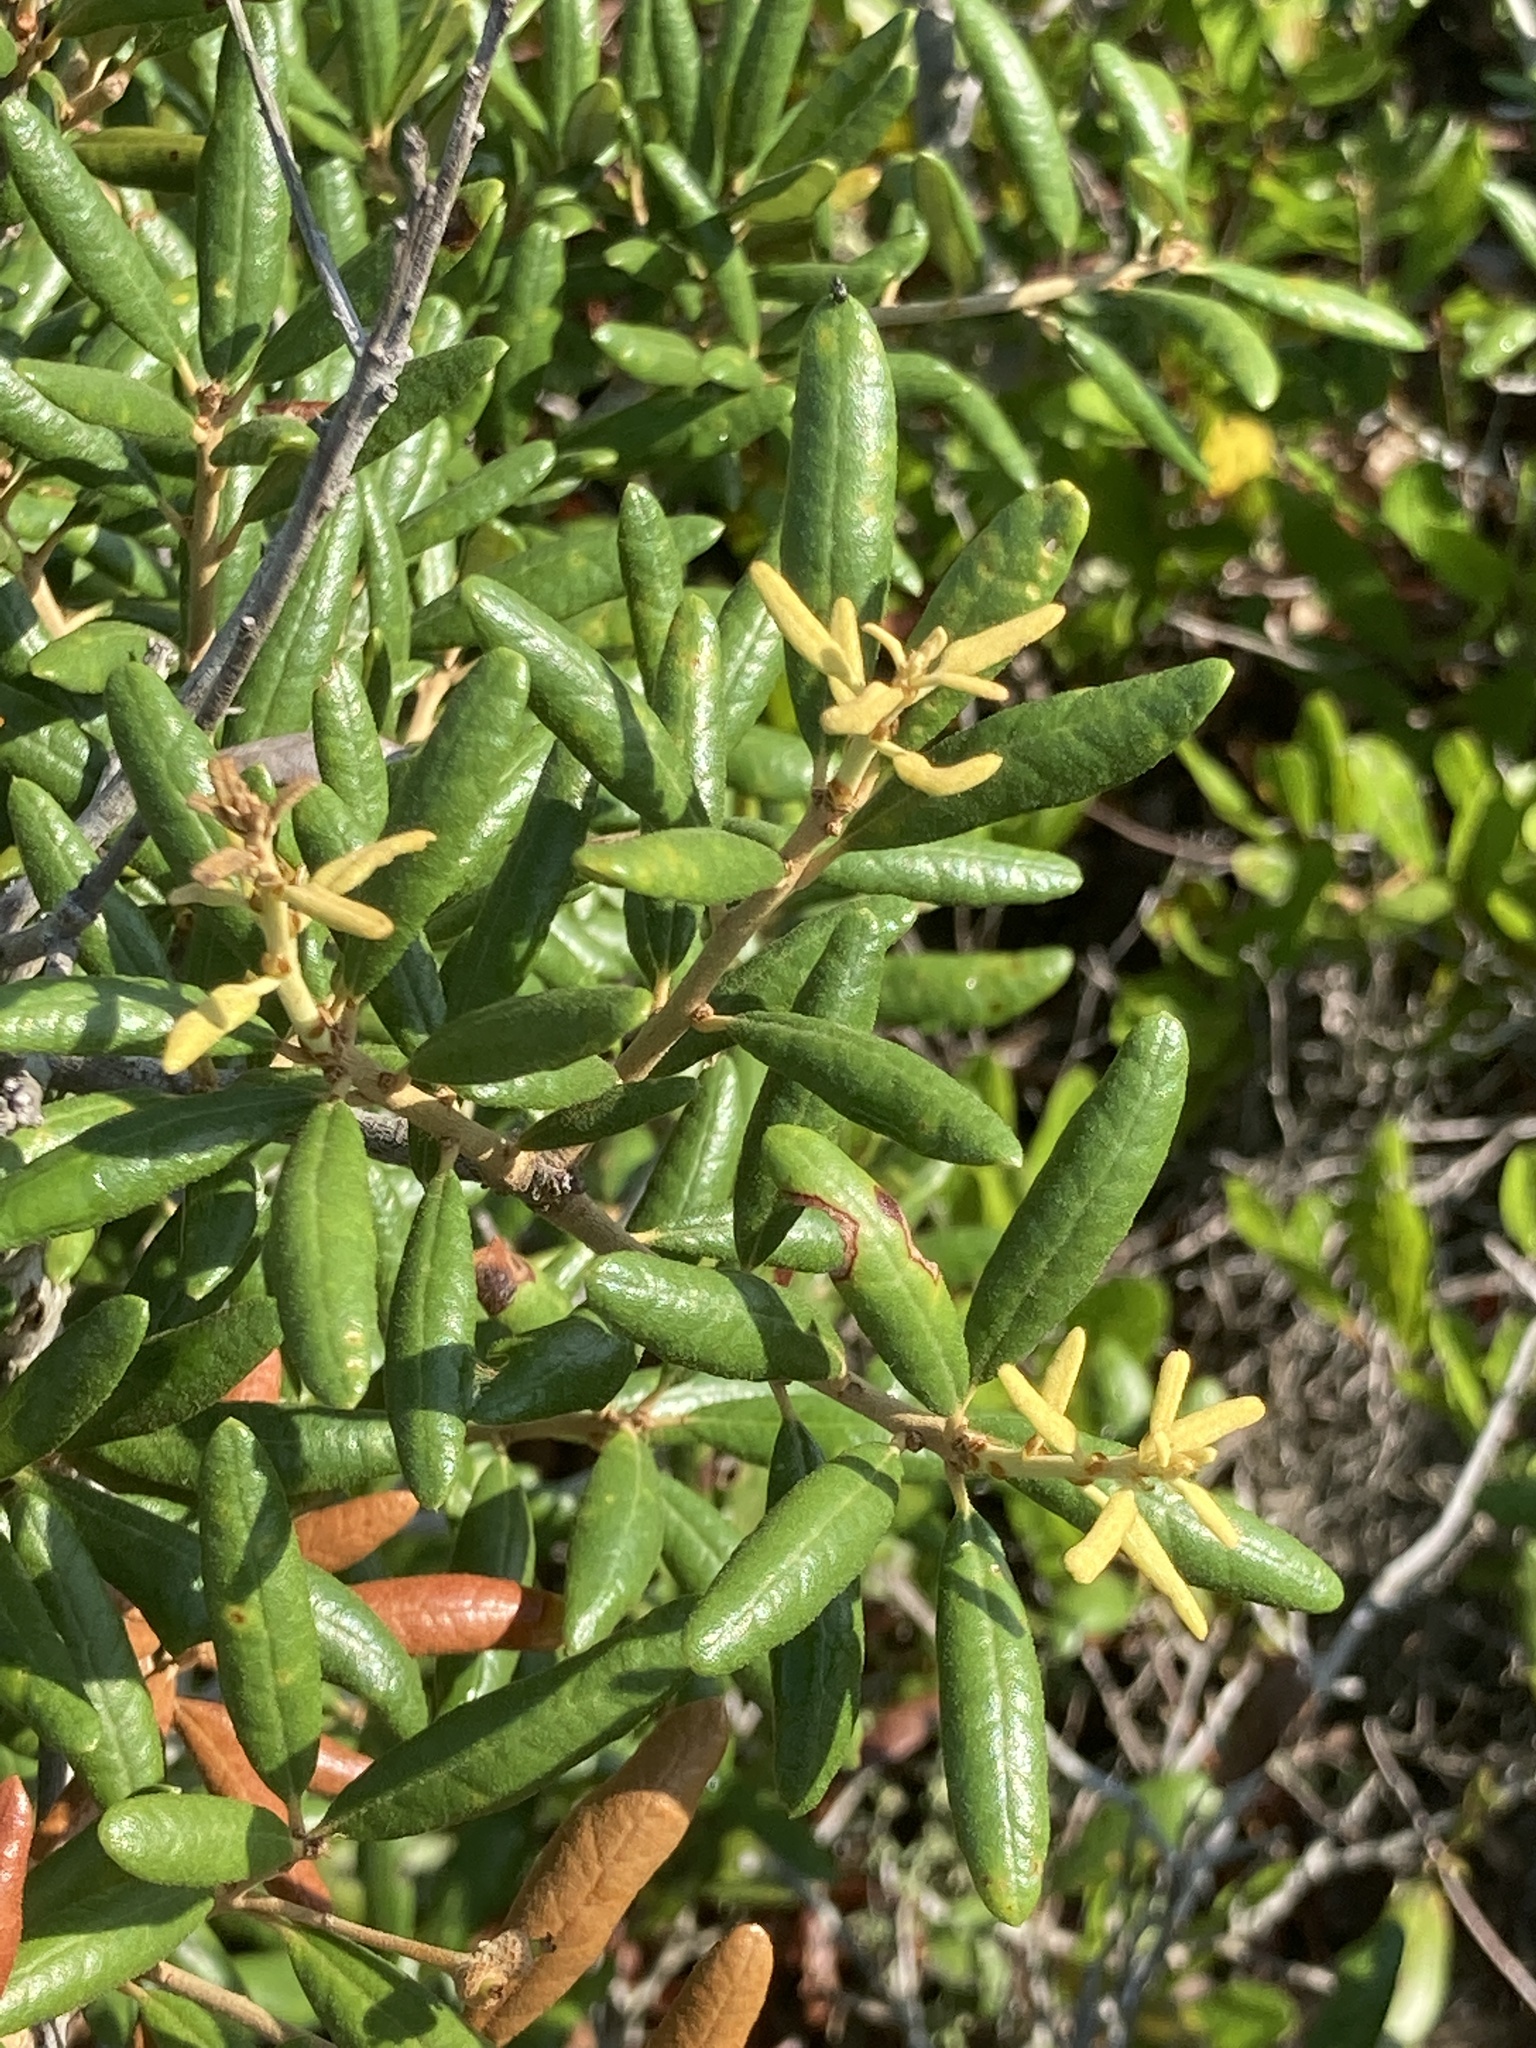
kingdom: Plantae
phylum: Tracheophyta
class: Magnoliopsida
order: Fagales
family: Fagaceae
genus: Quercus
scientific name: Quercus geminata
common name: Sand live oak
